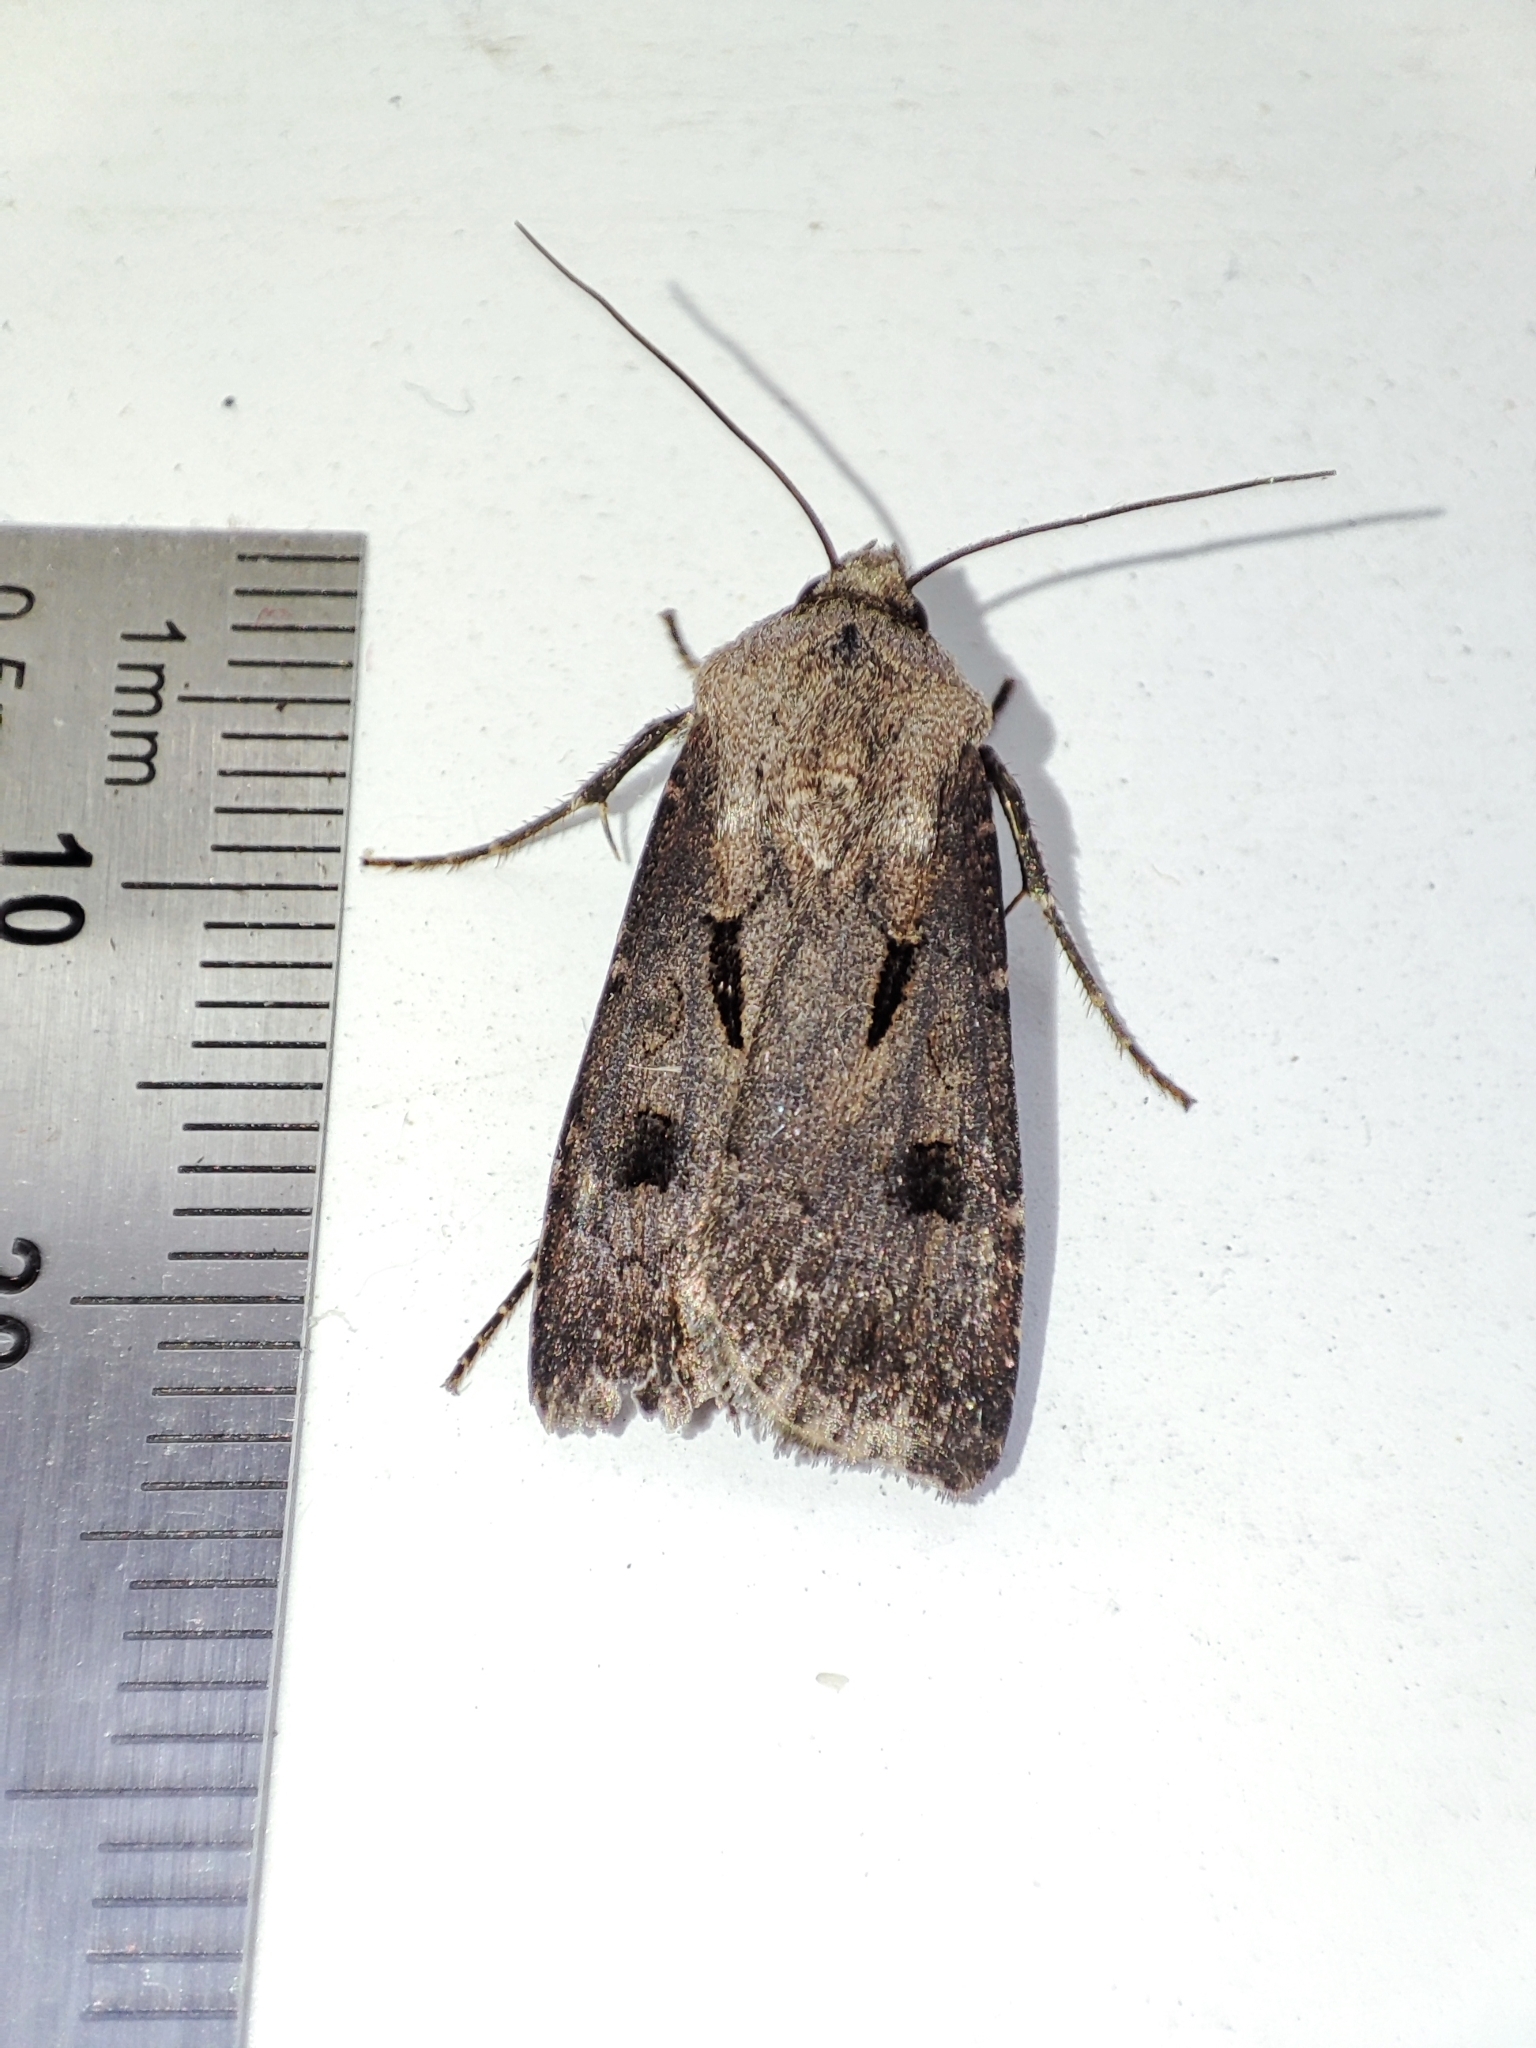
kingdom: Animalia
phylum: Arthropoda
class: Insecta
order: Lepidoptera
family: Noctuidae
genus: Agrotis
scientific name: Agrotis exclamationis
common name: Heart and dart
